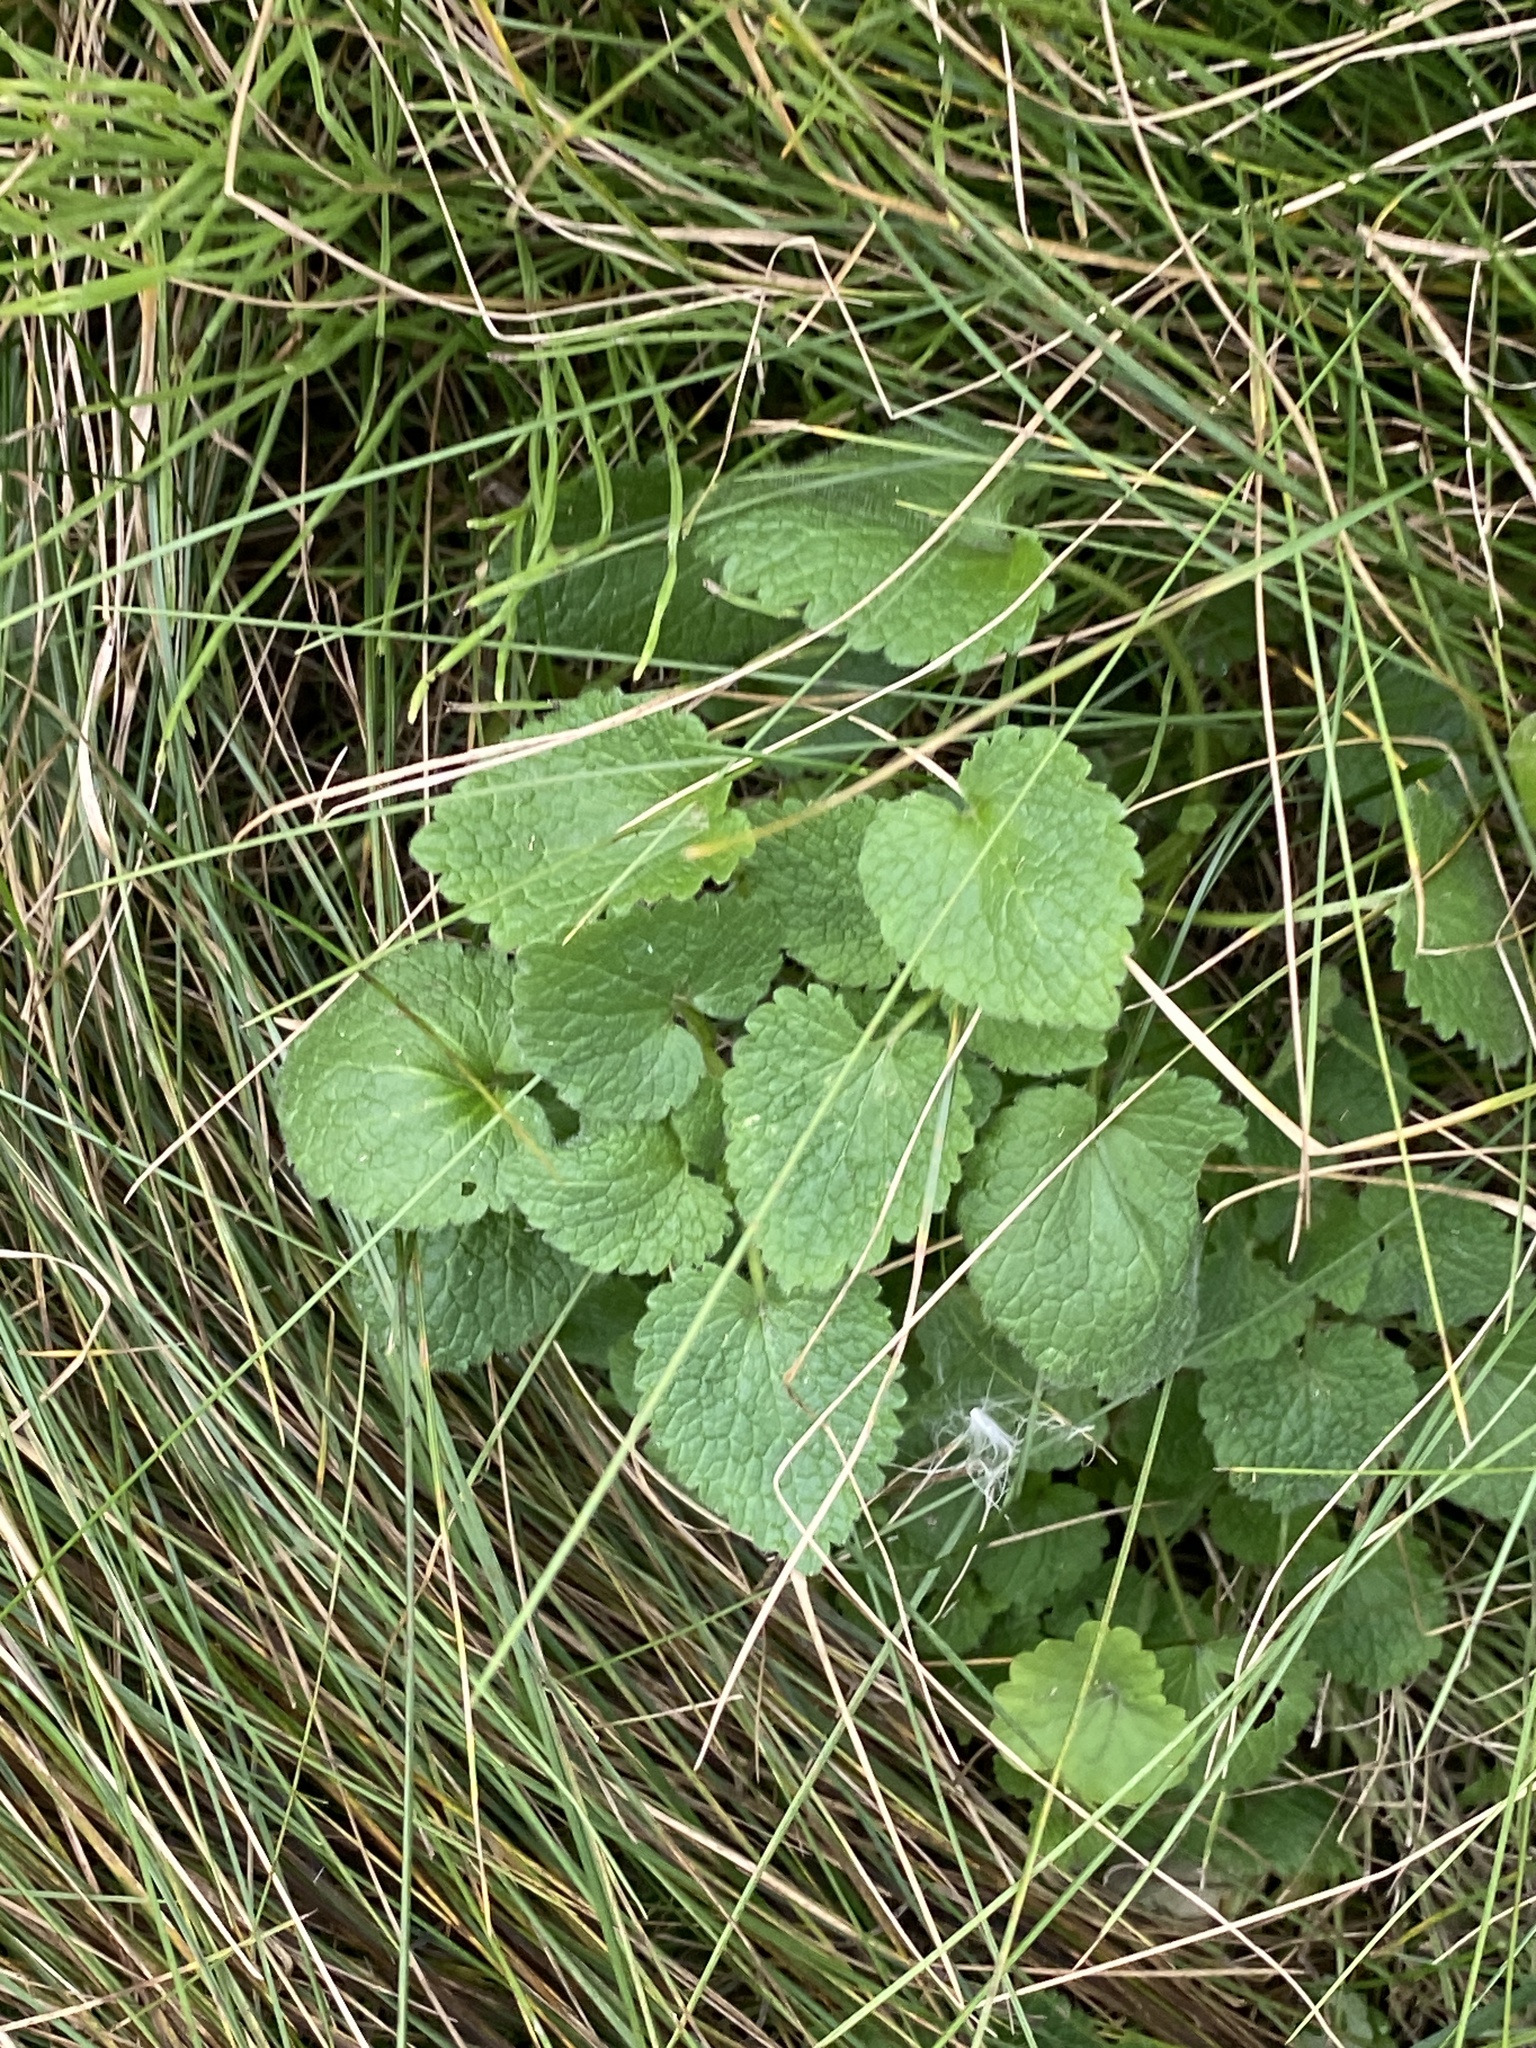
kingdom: Plantae
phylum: Tracheophyta
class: Magnoliopsida
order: Lamiales
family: Lamiaceae
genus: Lamium
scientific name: Lamium purpureum
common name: Red dead-nettle
